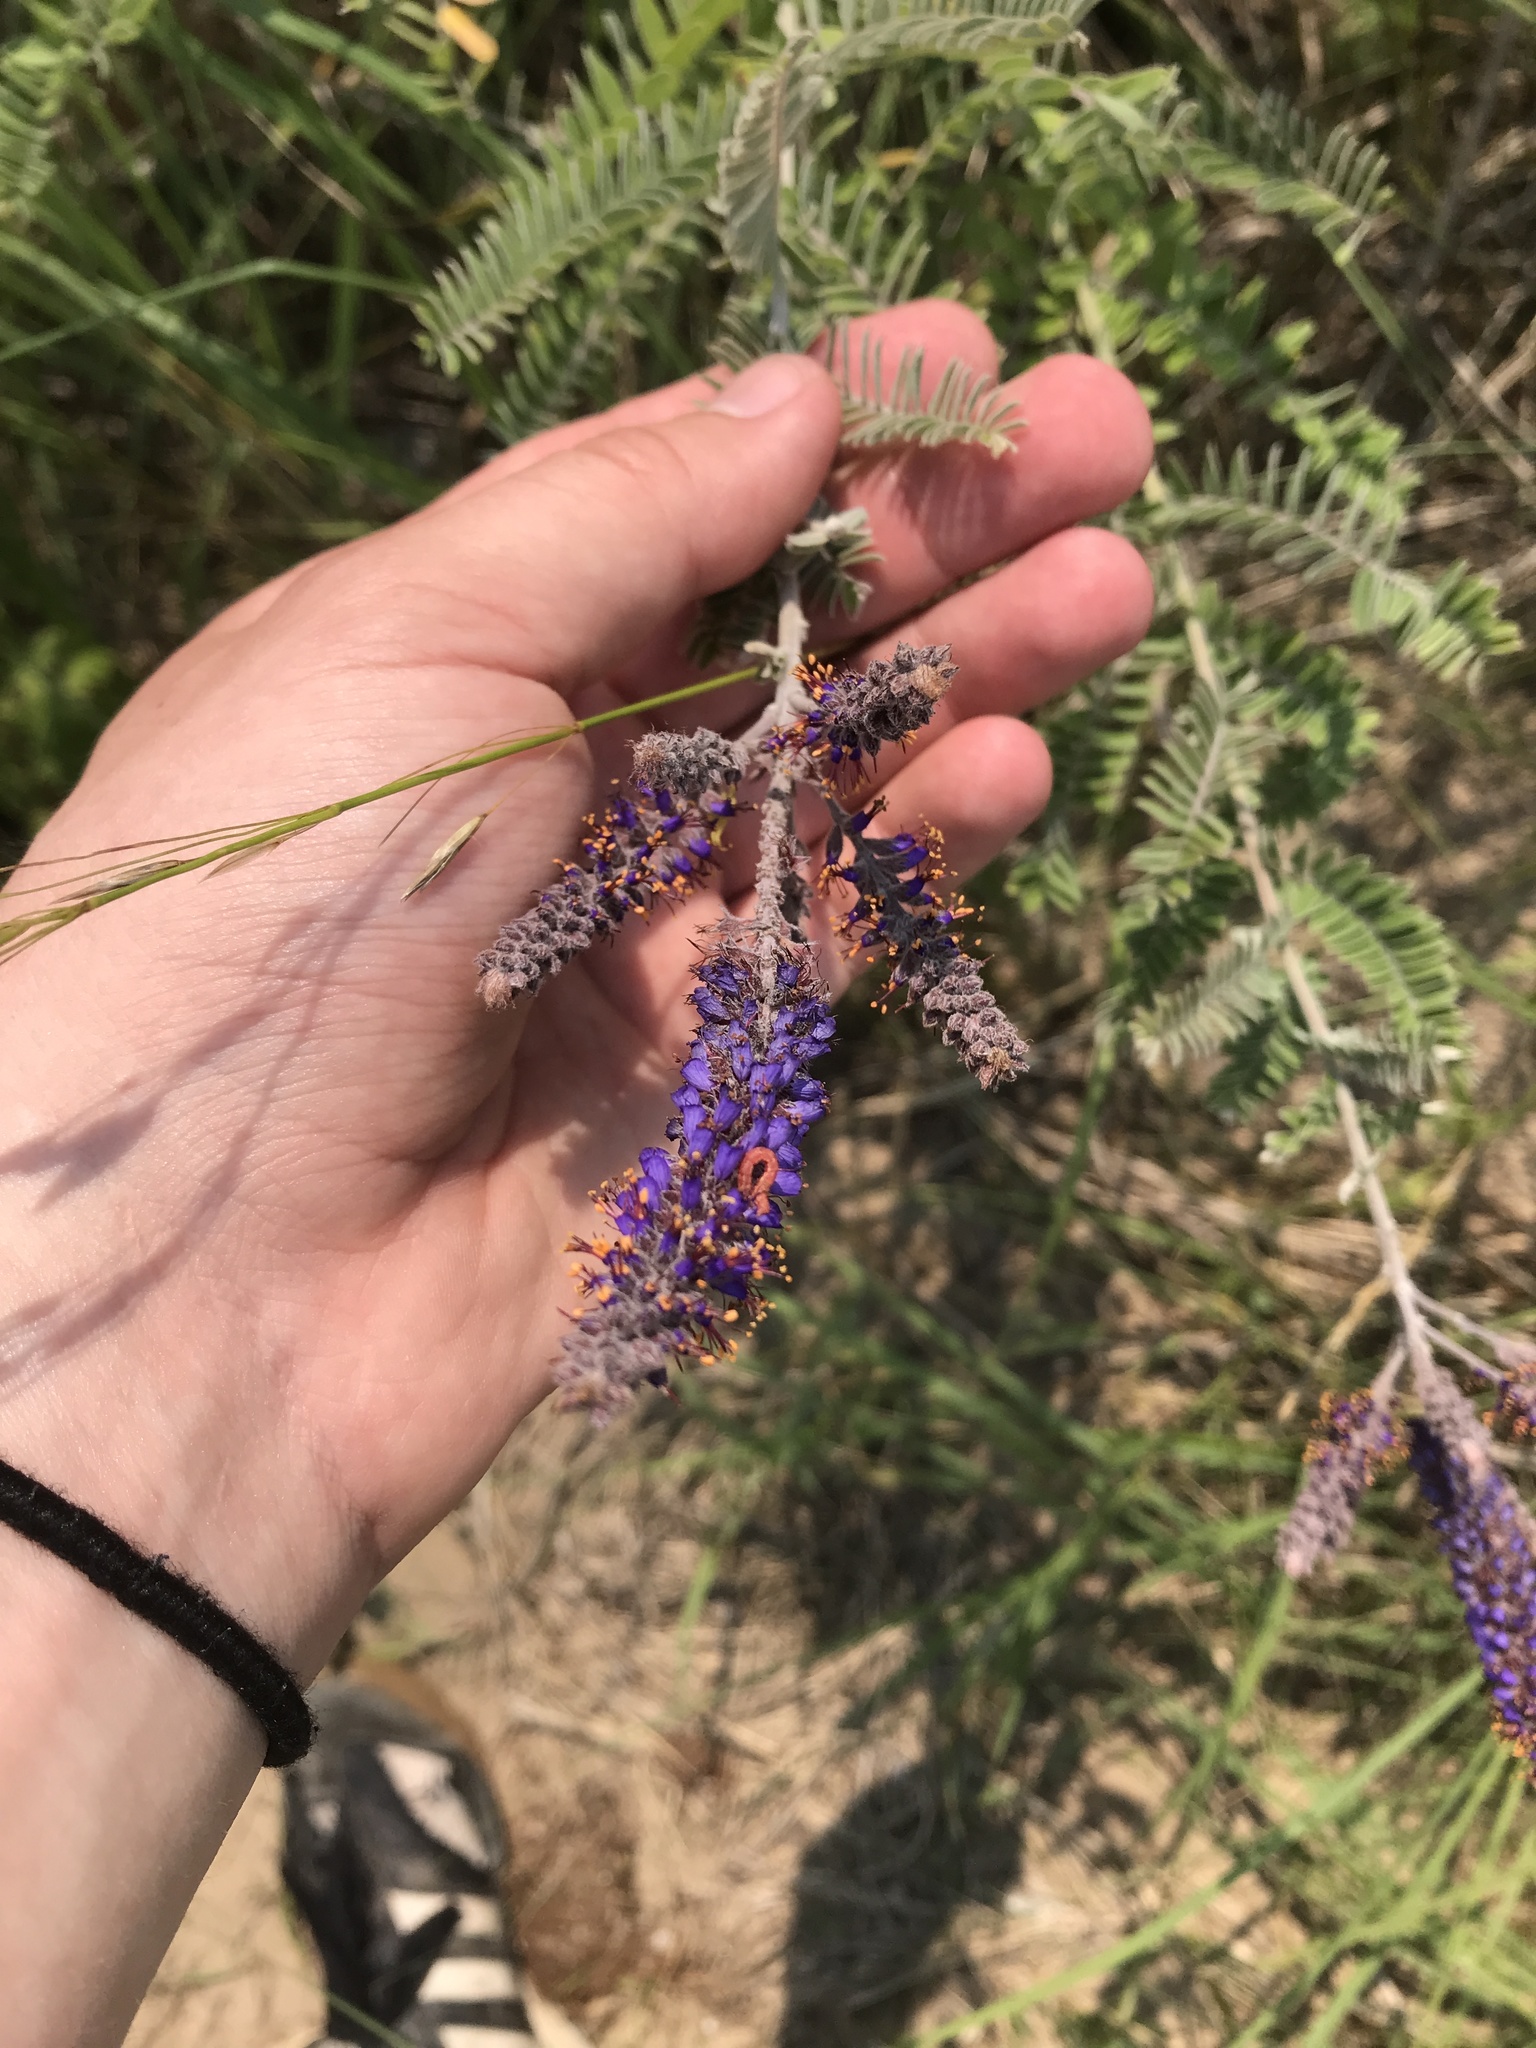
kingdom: Plantae
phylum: Tracheophyta
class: Magnoliopsida
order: Fabales
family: Fabaceae
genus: Amorpha
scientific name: Amorpha canescens
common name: Leadplant
